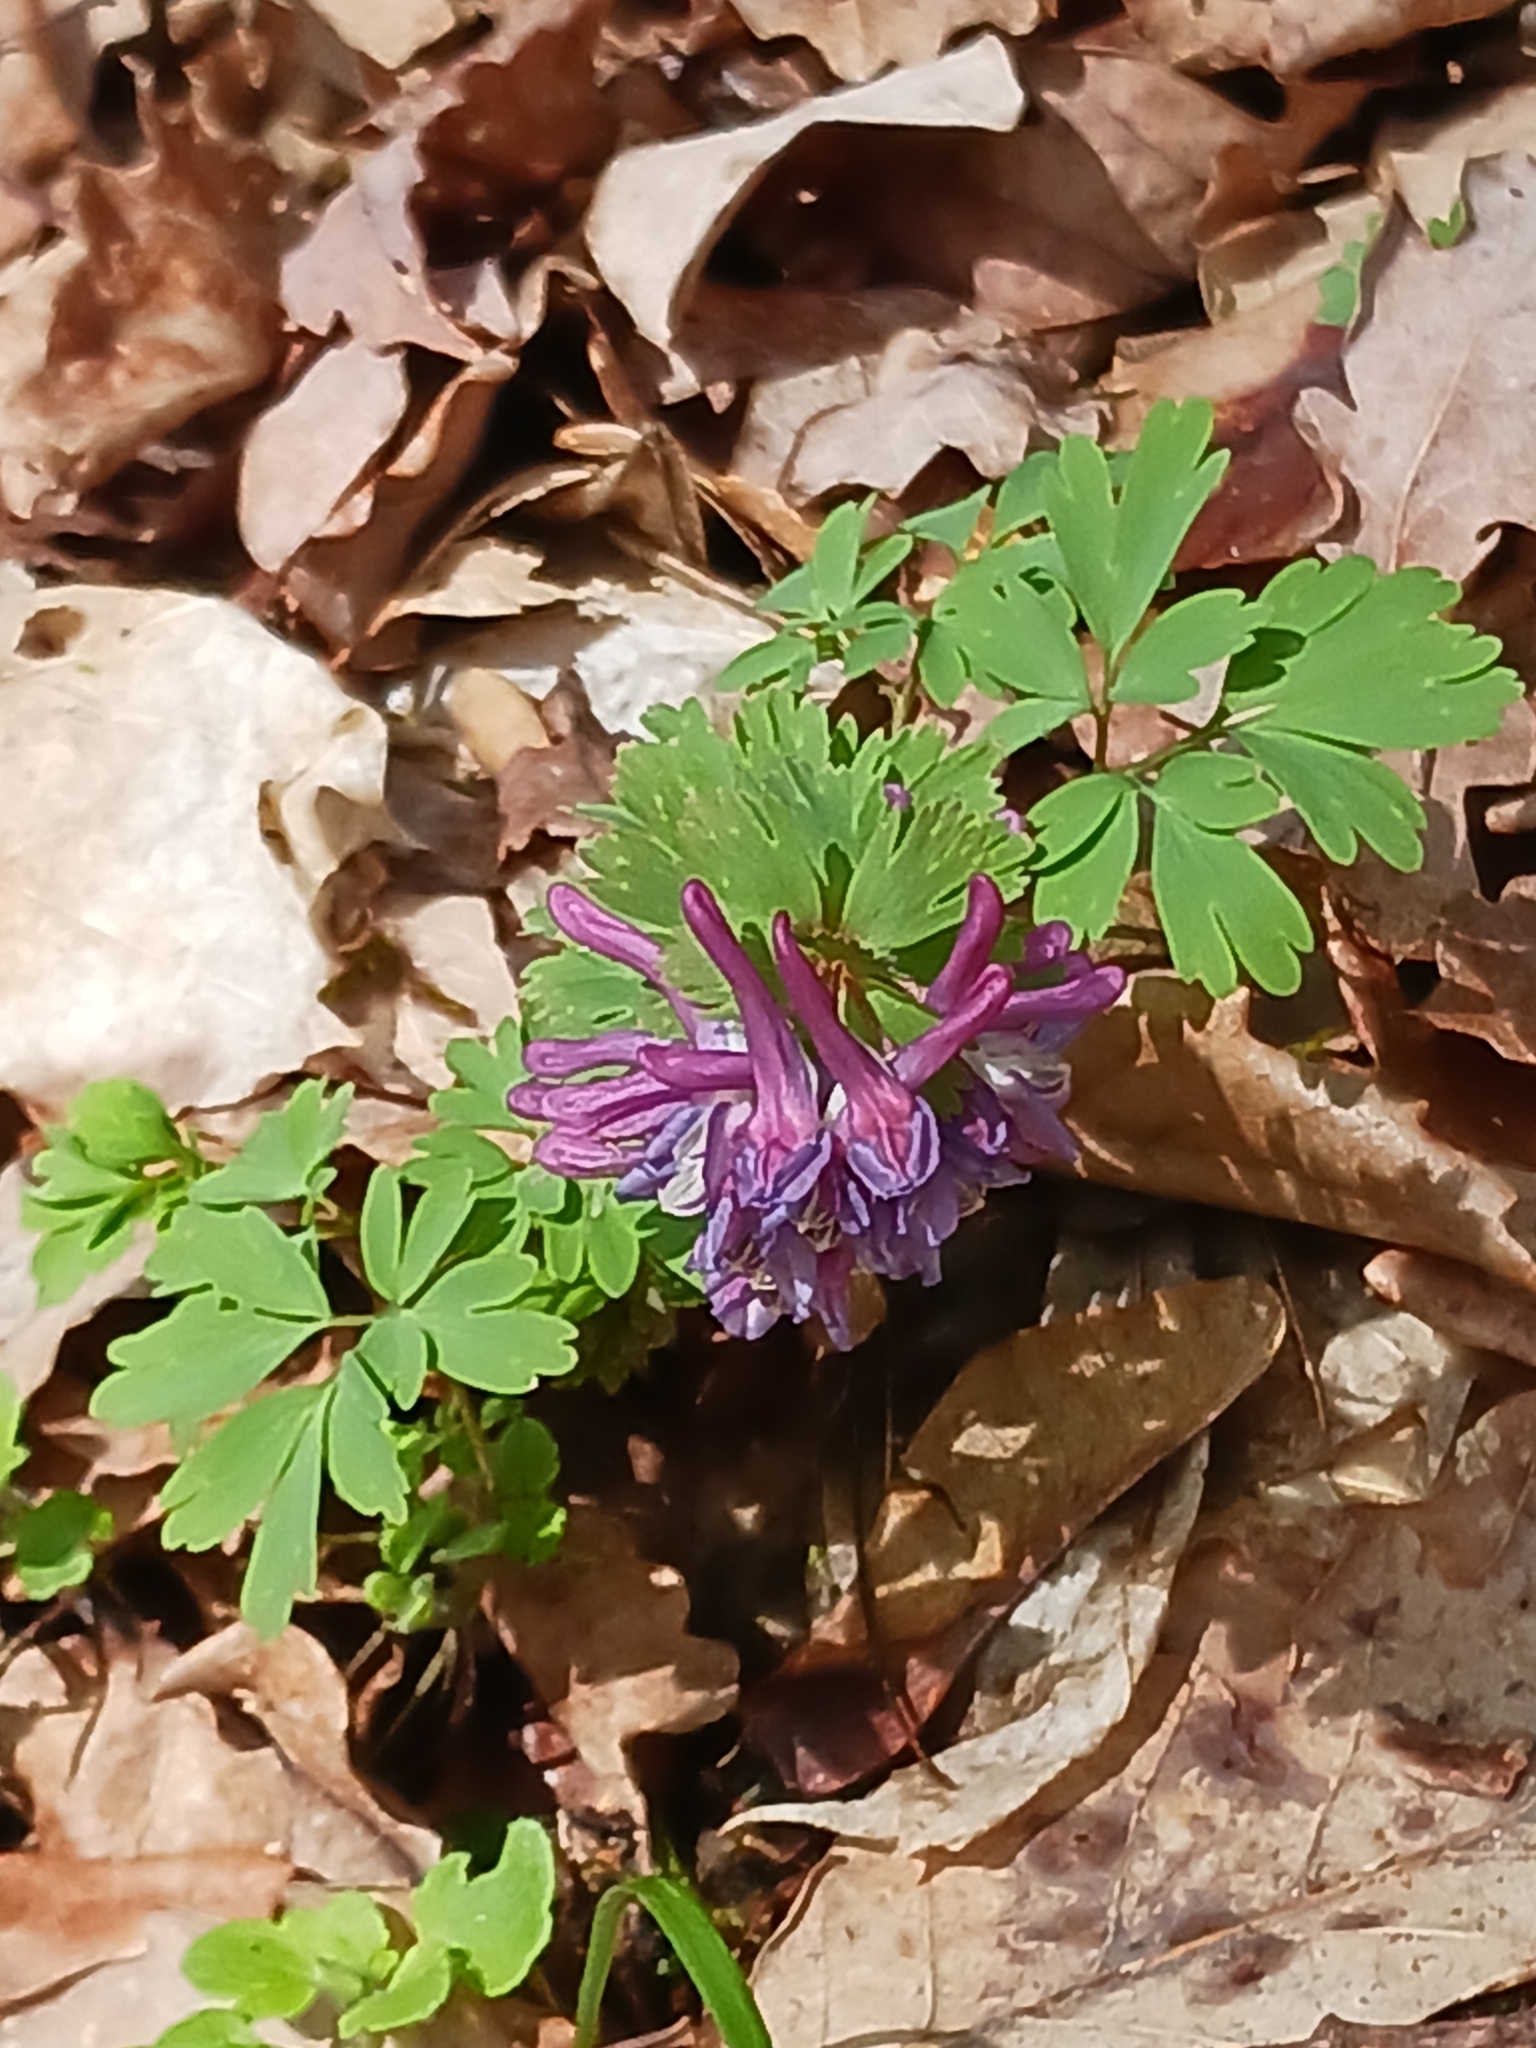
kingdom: Plantae
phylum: Tracheophyta
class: Magnoliopsida
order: Ranunculales
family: Papaveraceae
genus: Corydalis
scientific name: Corydalis solida
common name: Bird-in-a-bush
